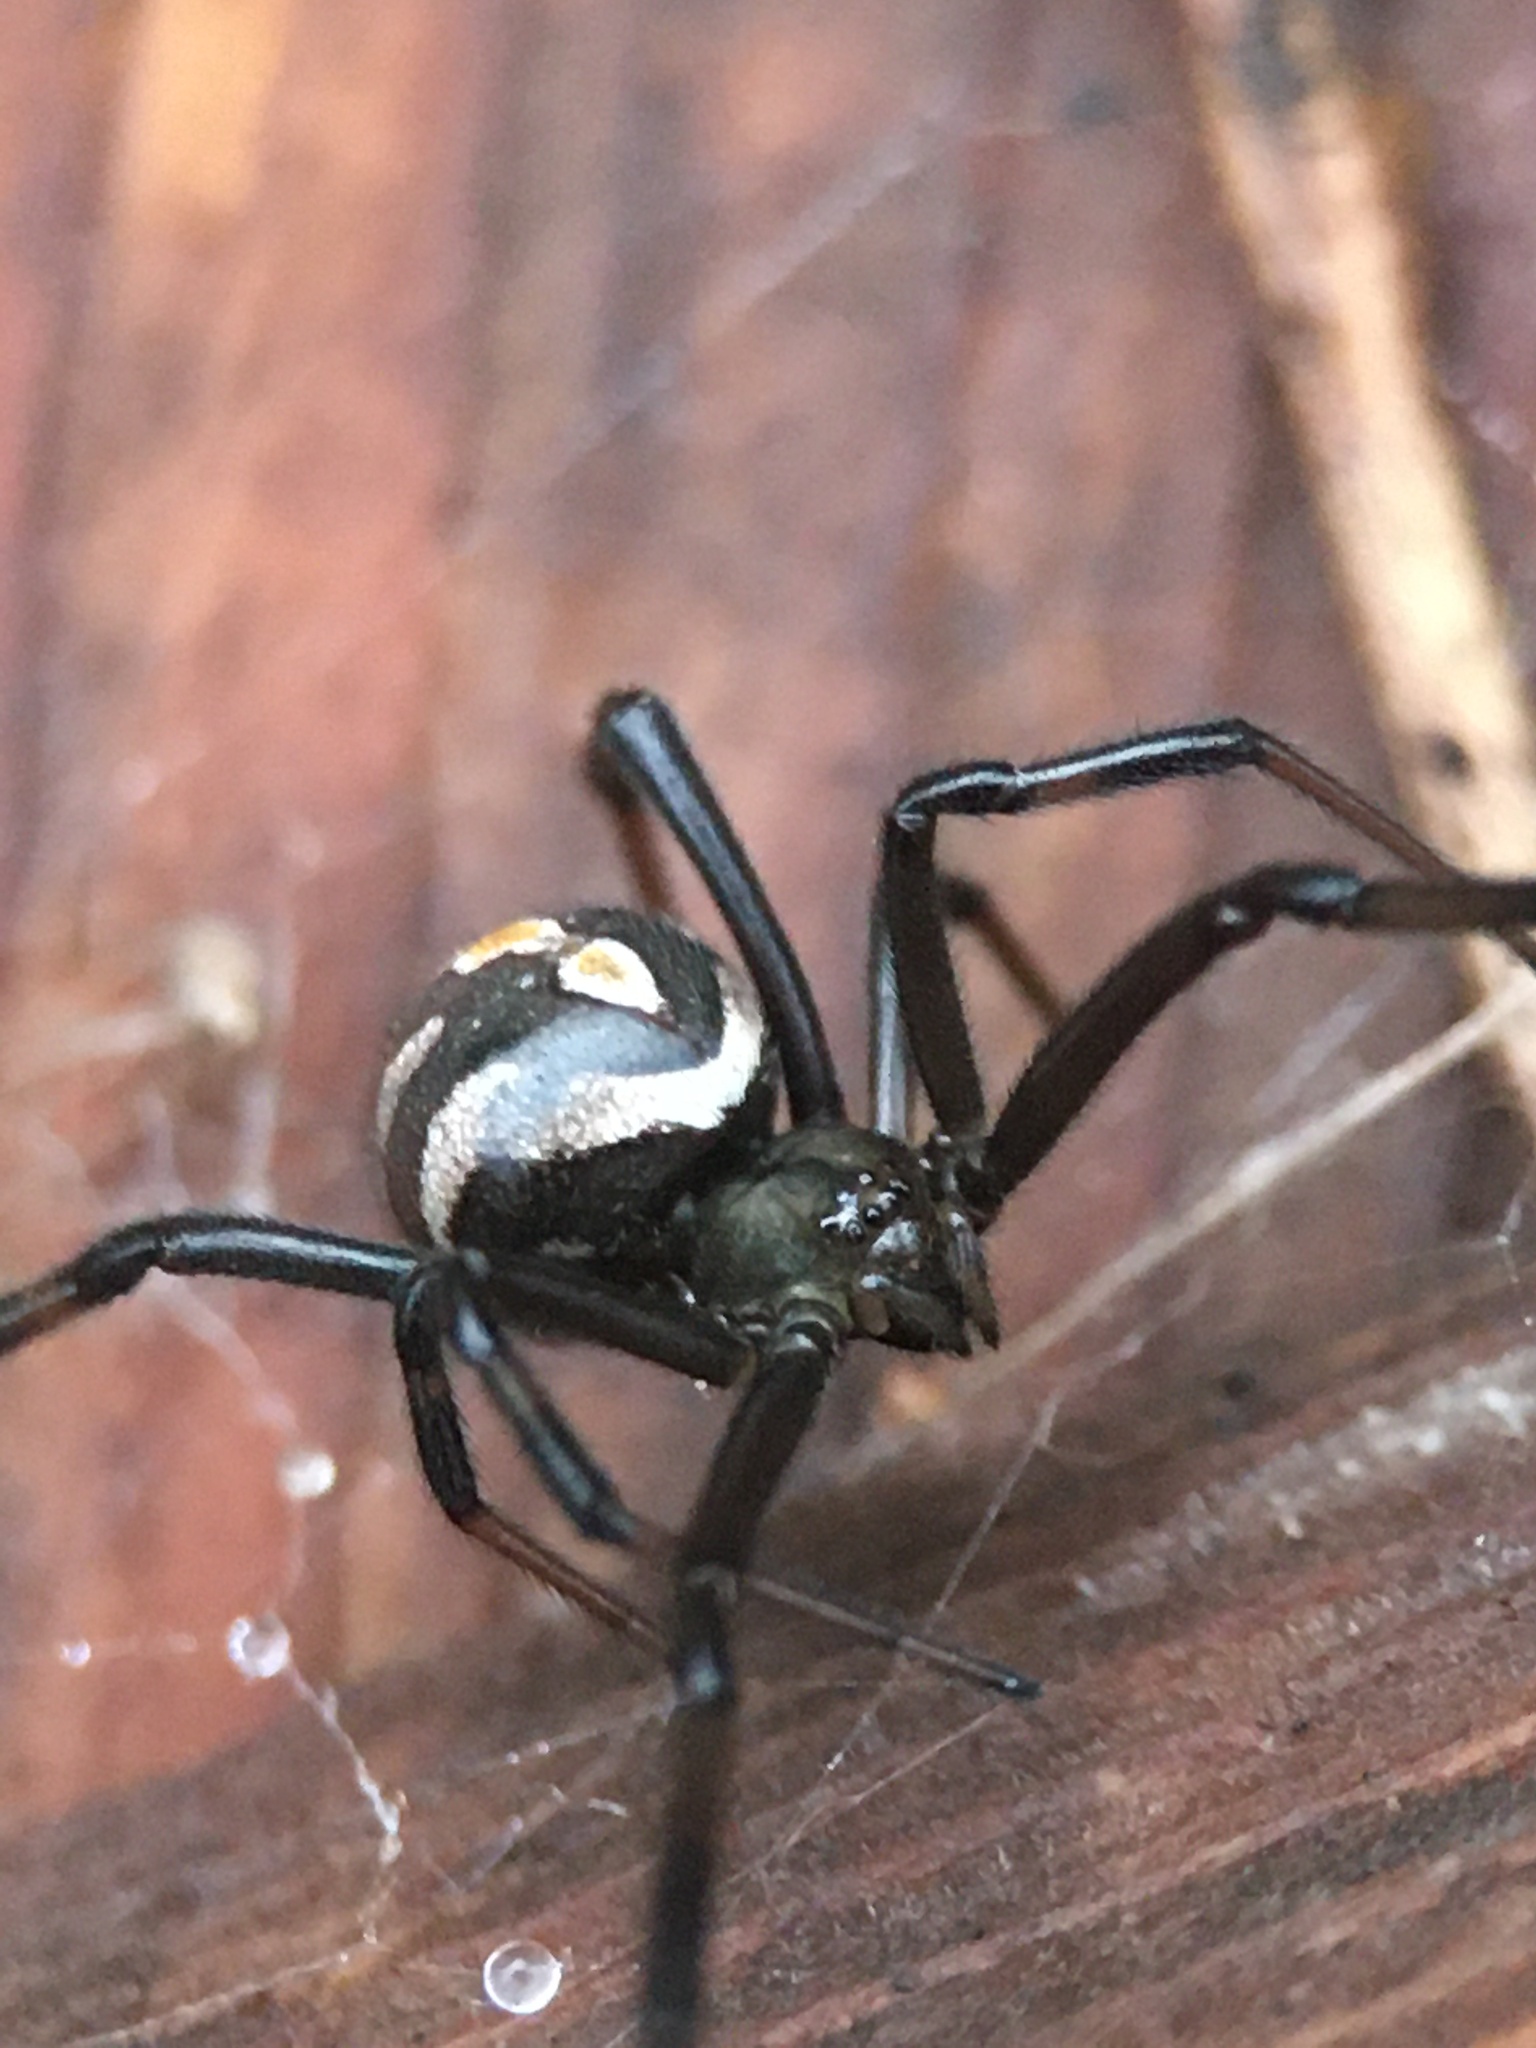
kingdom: Animalia
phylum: Arthropoda
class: Arachnida
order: Araneae
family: Theridiidae
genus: Latrodectus
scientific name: Latrodectus hesperus
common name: Western black widow
